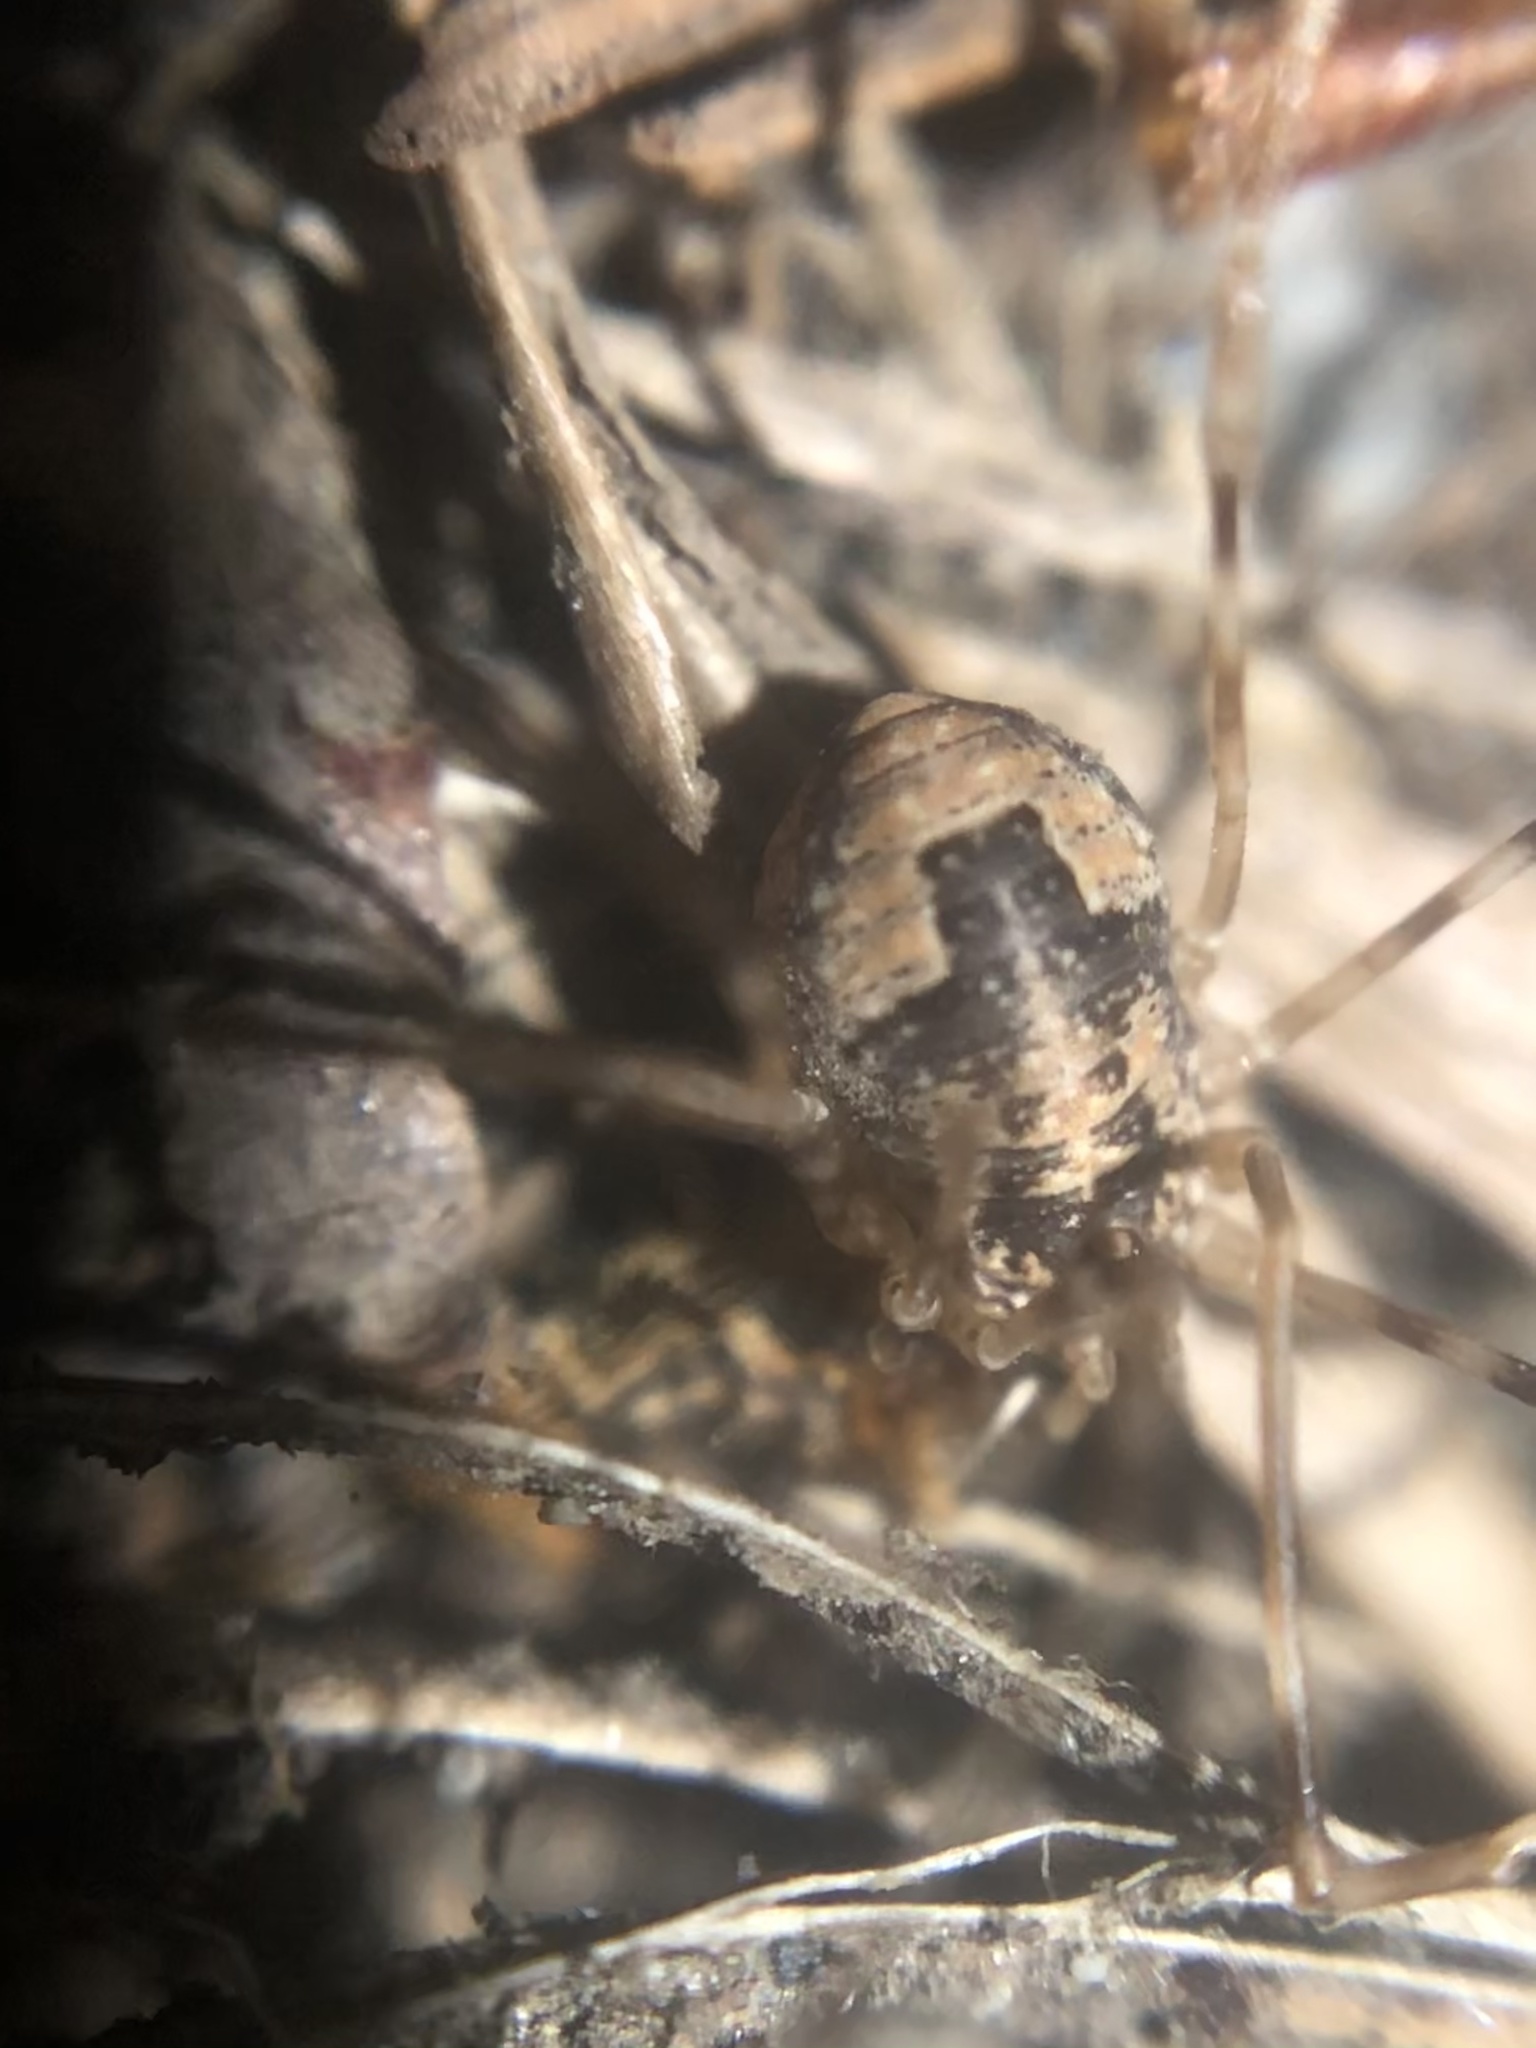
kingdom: Animalia
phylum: Arthropoda
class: Arachnida
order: Opiliones
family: Phalangiidae
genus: Leptobunus
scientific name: Leptobunus parvulus
